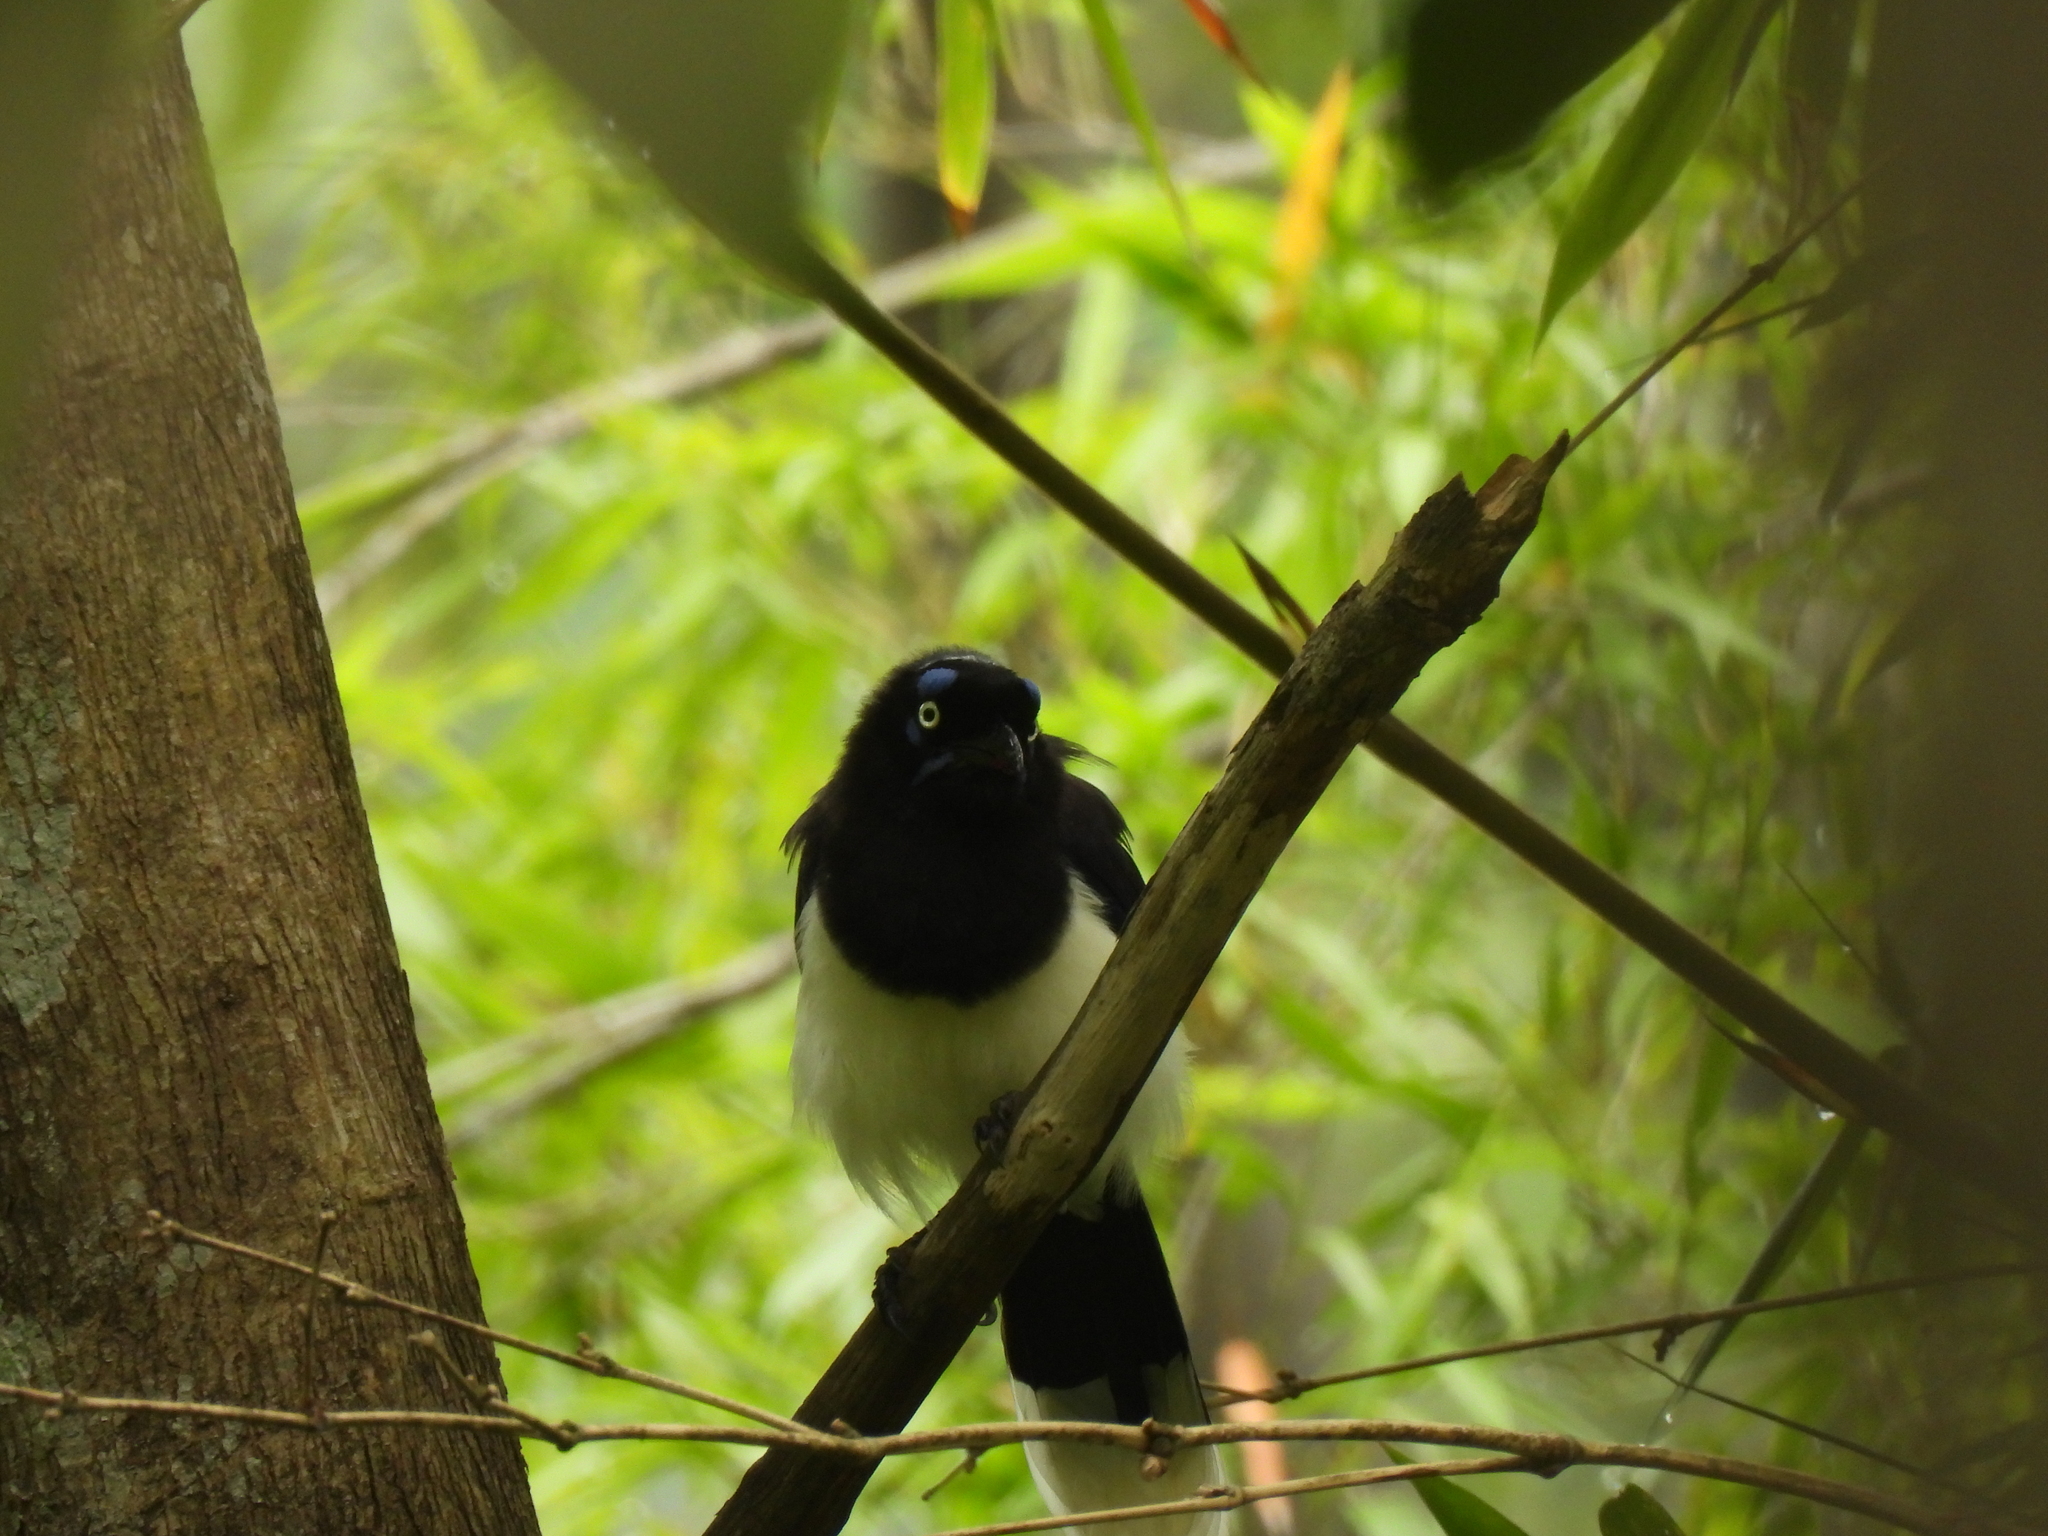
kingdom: Animalia
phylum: Chordata
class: Aves
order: Passeriformes
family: Corvidae
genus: Cyanocorax
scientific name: Cyanocorax affinis
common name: Black-chested jay
